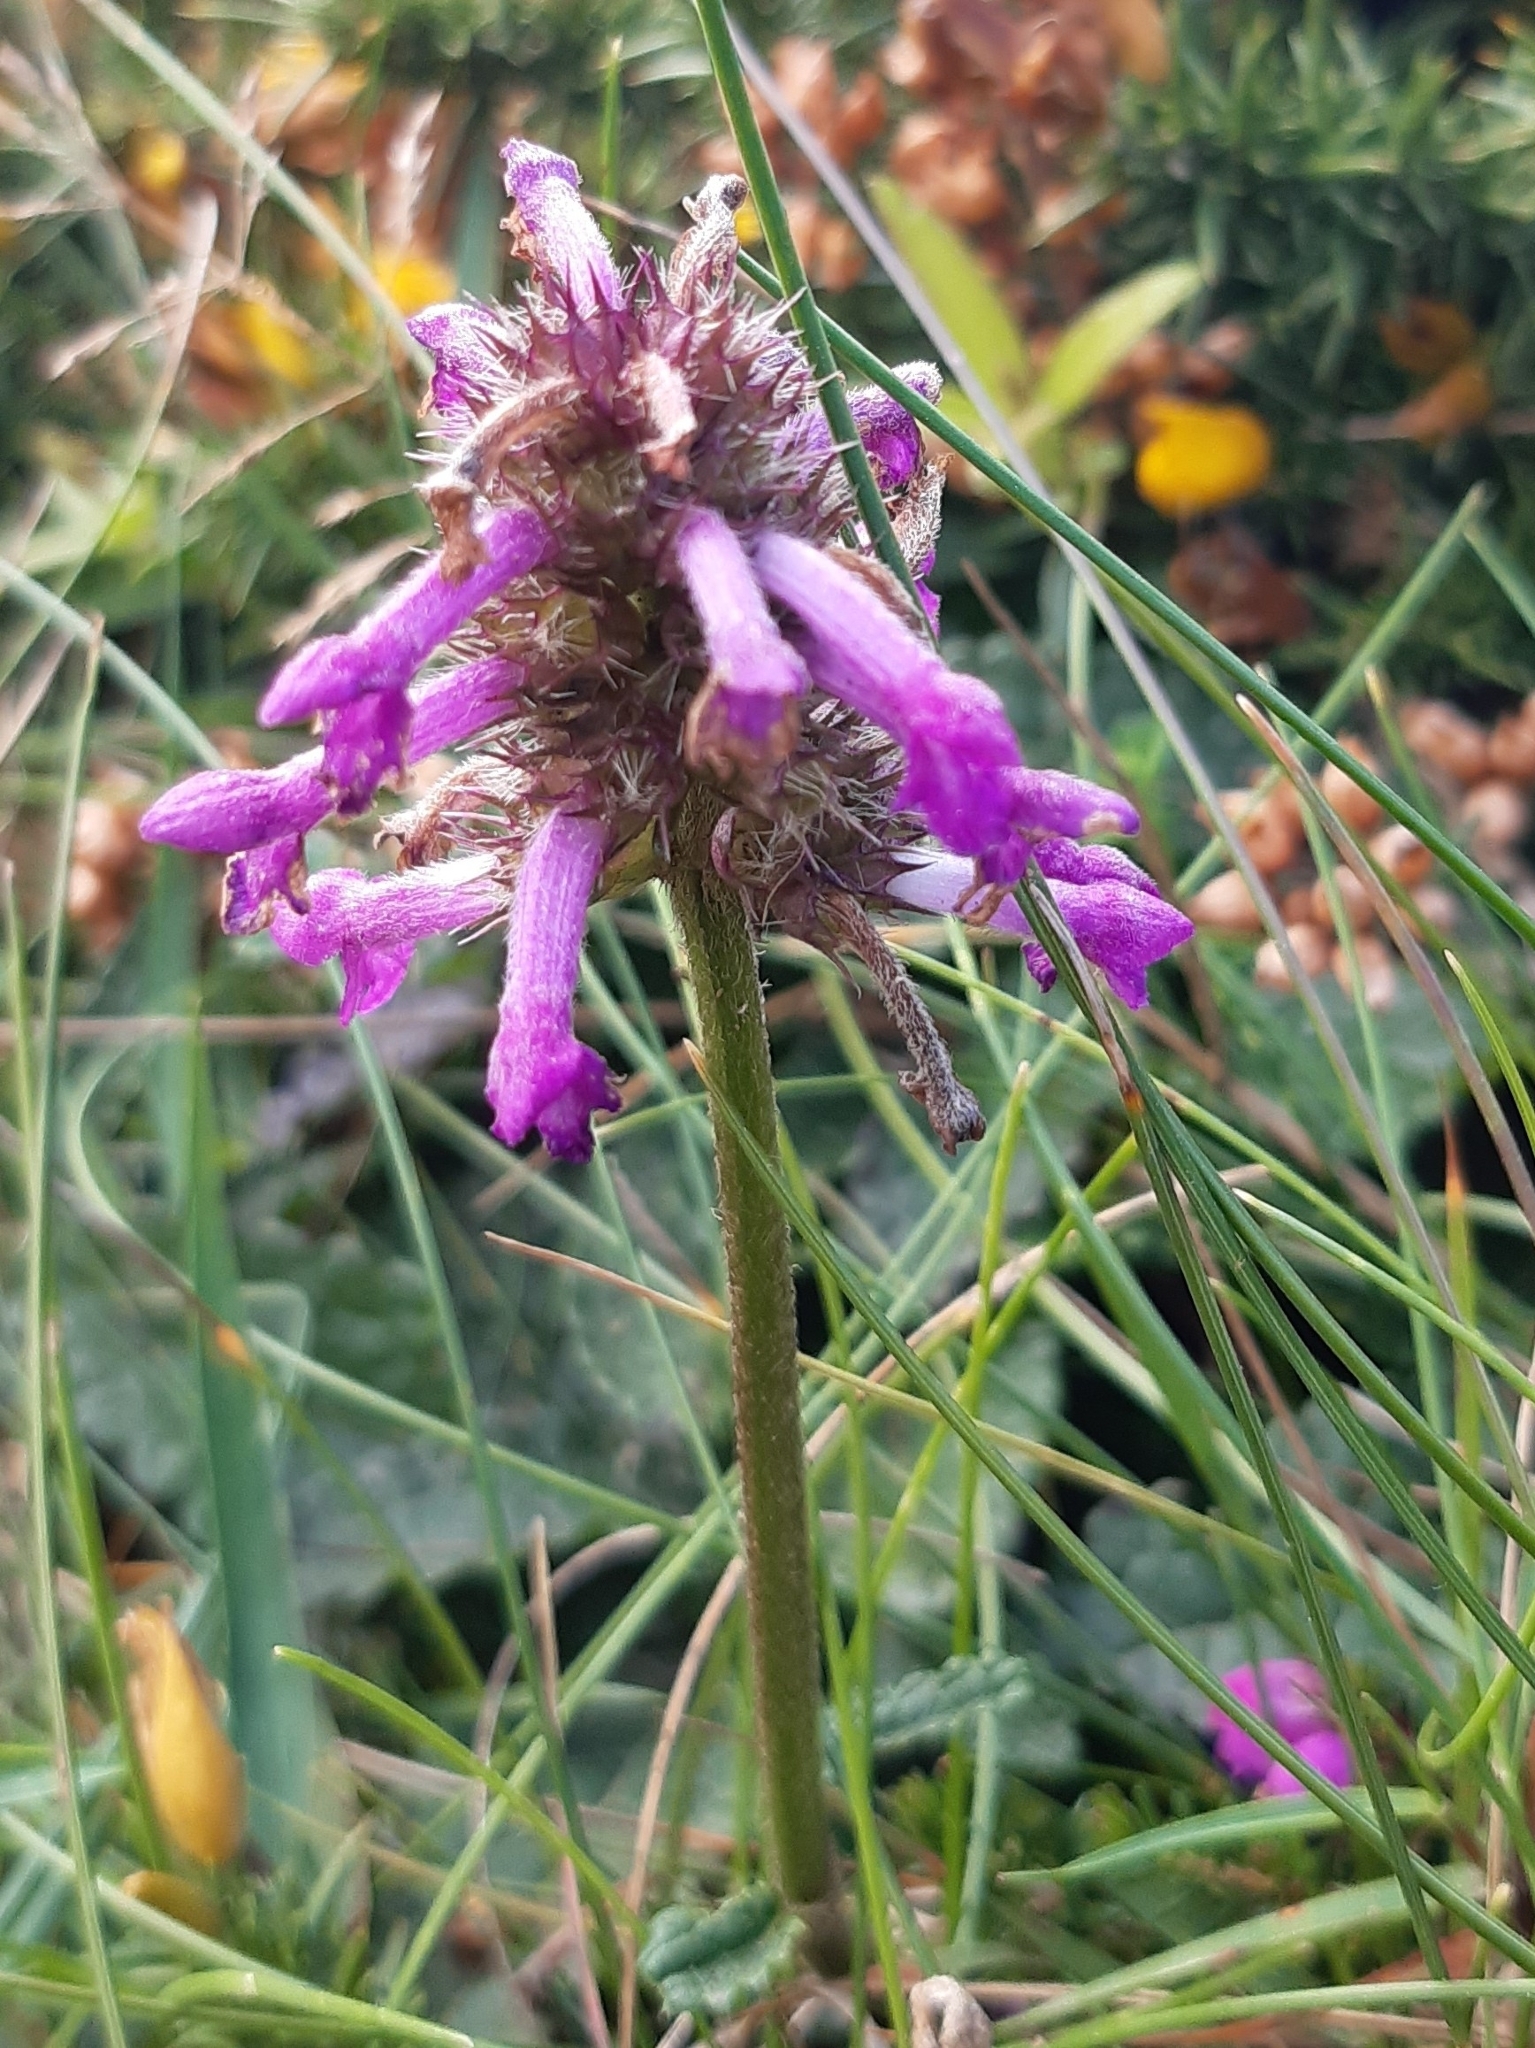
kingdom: Plantae
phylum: Tracheophyta
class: Magnoliopsida
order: Lamiales
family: Lamiaceae
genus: Betonica
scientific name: Betonica officinalis
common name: Bishop's-wort
